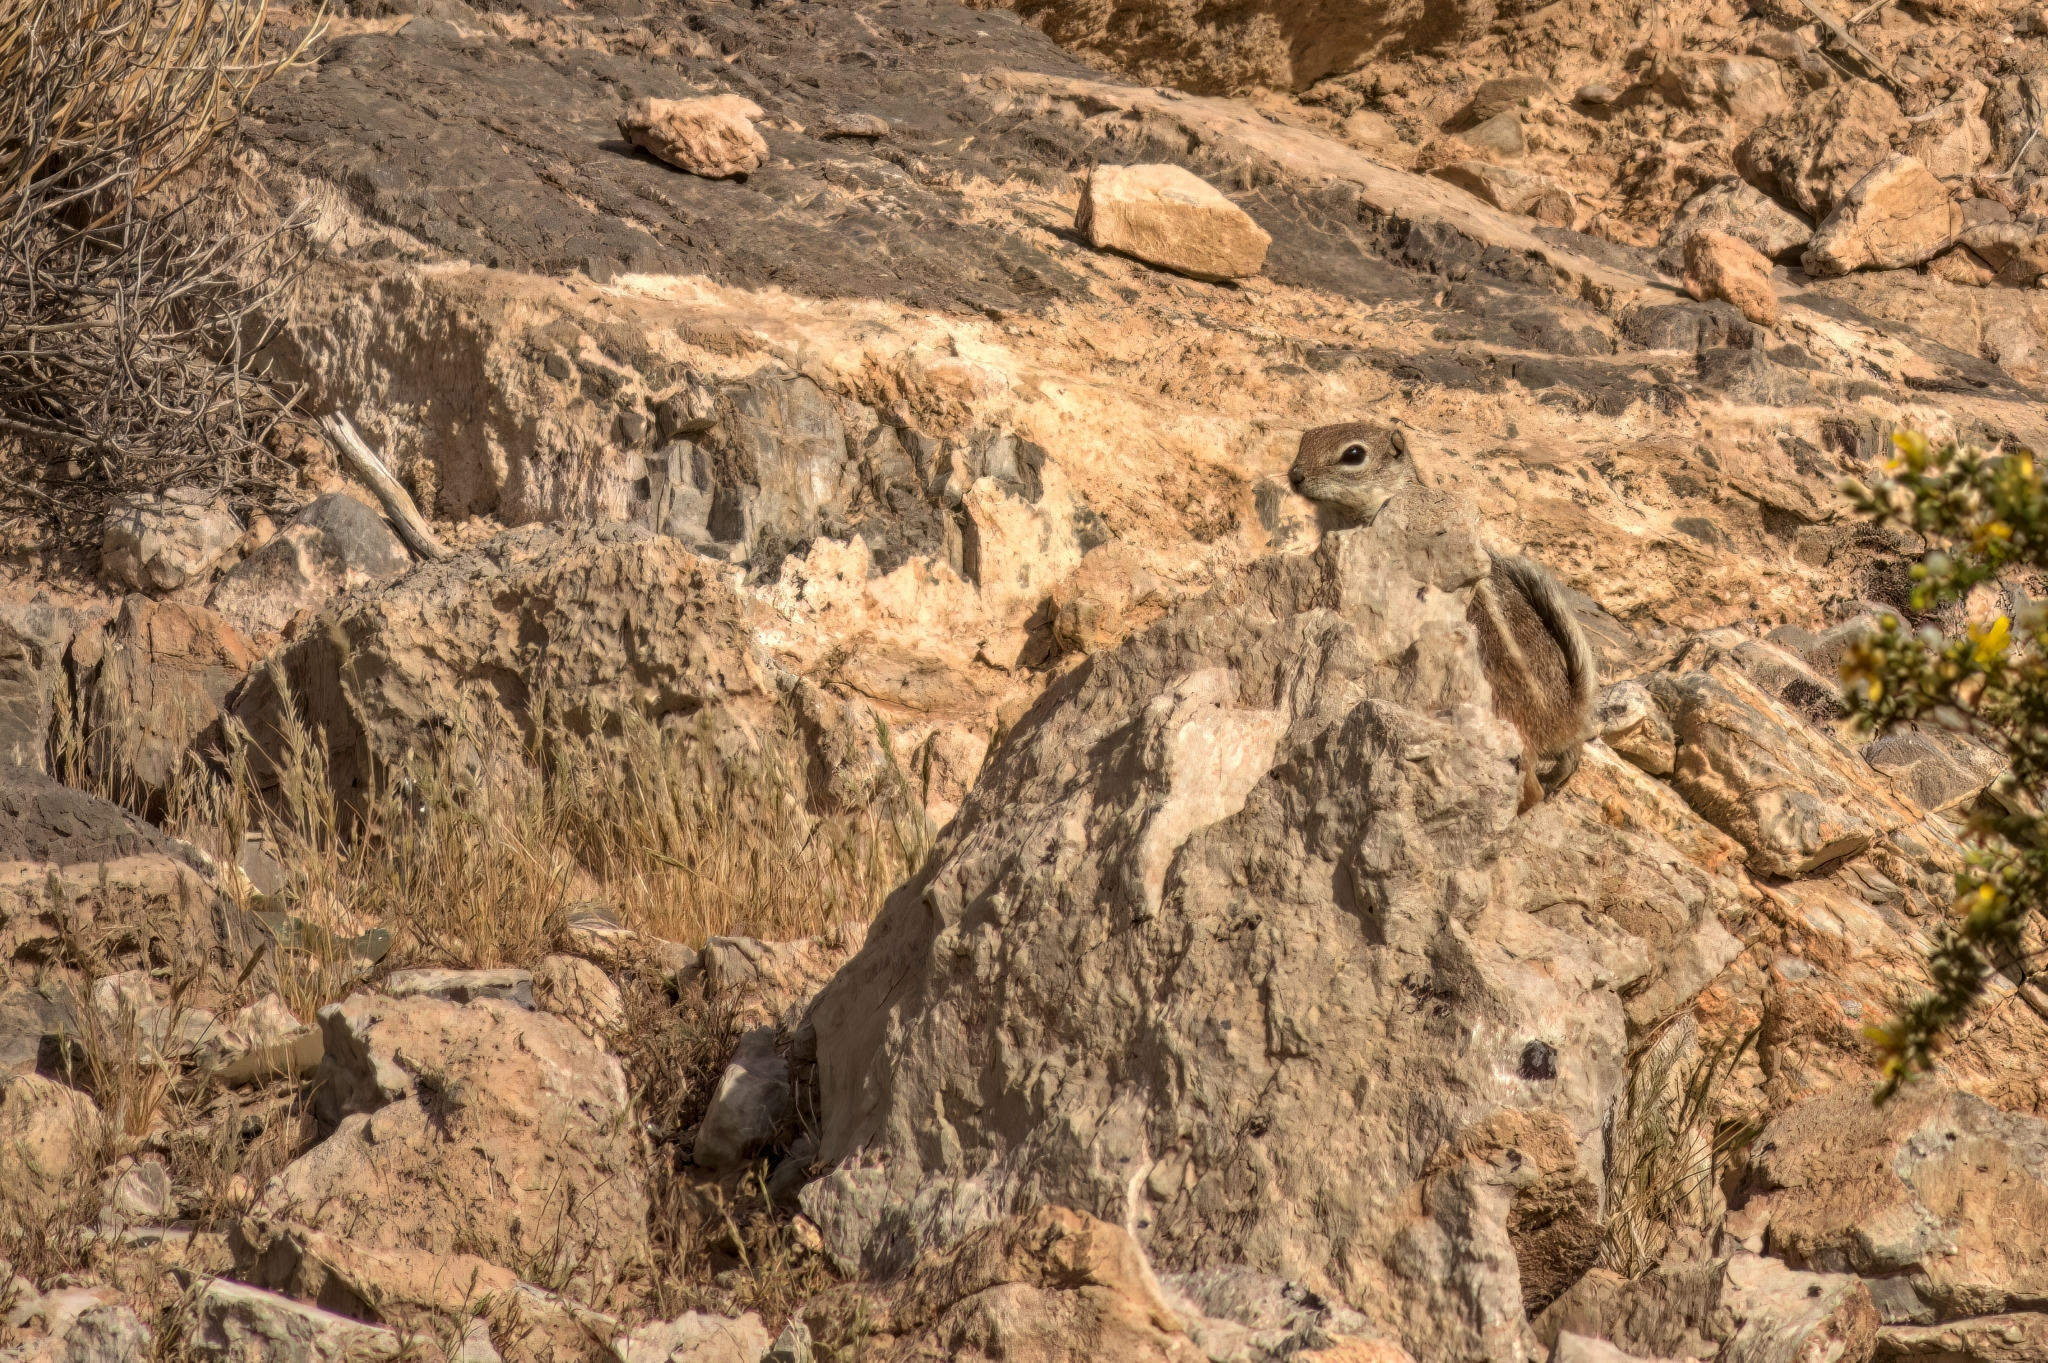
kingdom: Animalia
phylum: Chordata
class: Mammalia
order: Rodentia
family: Sciuridae
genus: Ammospermophilus
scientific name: Ammospermophilus leucurus
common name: White-tailed antelope squirrel
